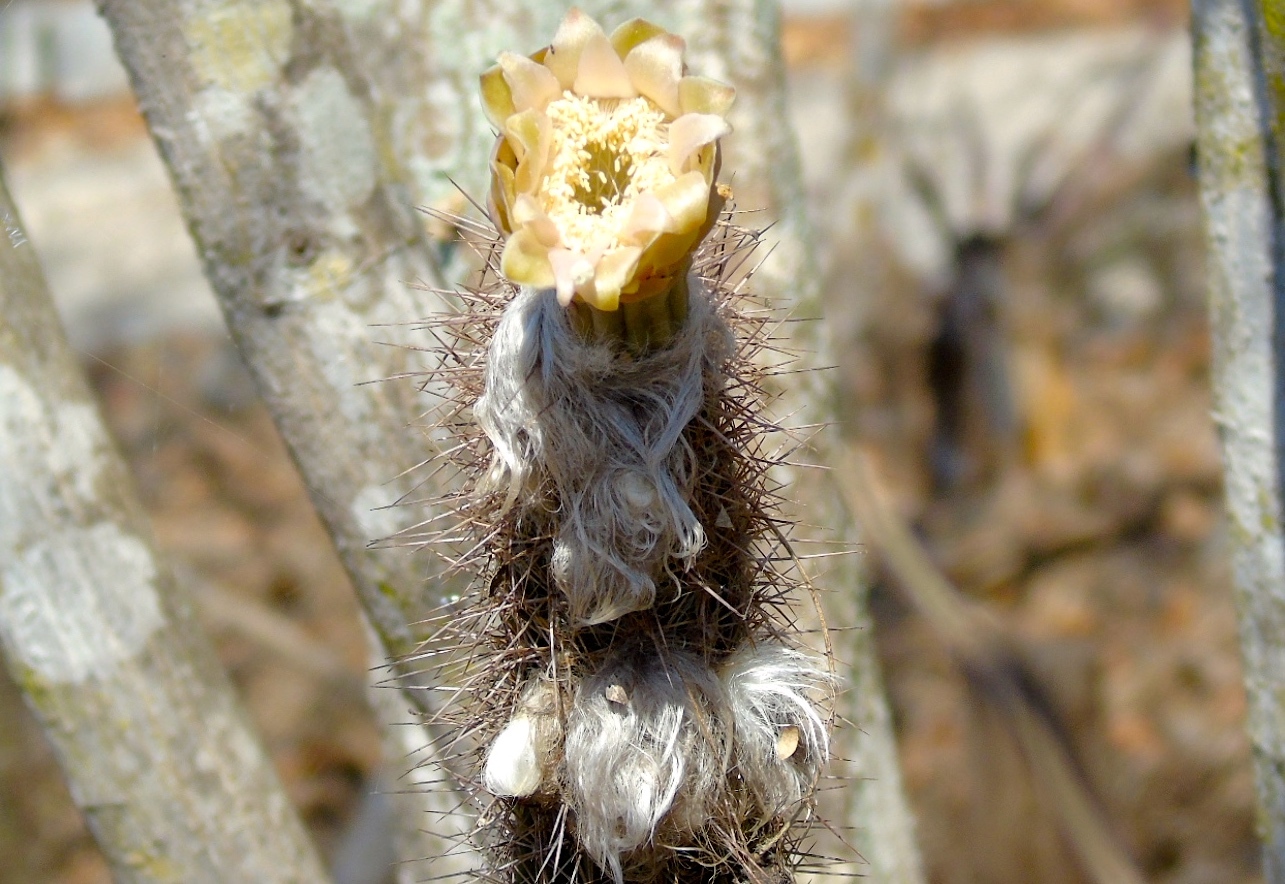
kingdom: Plantae
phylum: Tracheophyta
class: Magnoliopsida
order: Caryophyllales
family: Cactaceae
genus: Pilosocereus
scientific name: Pilosocereus purpusii
